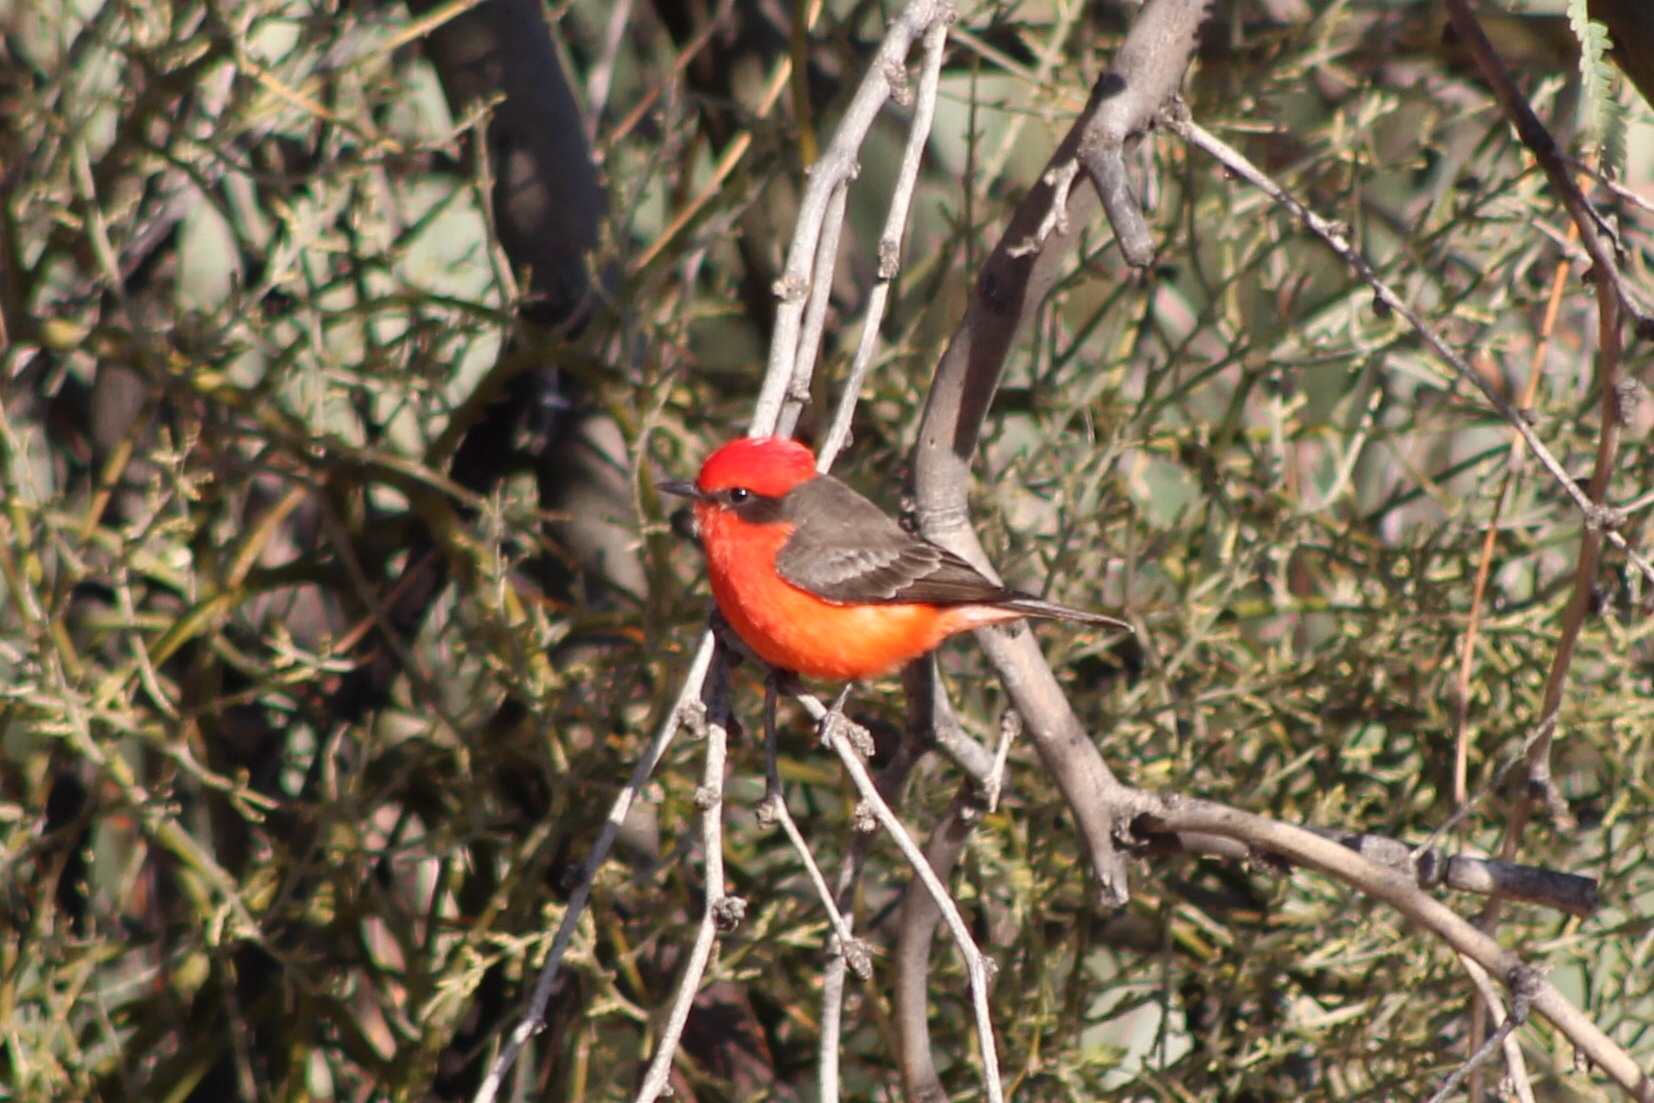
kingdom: Animalia
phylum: Chordata
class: Aves
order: Passeriformes
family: Tyrannidae
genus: Pyrocephalus
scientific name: Pyrocephalus rubinus
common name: Vermilion flycatcher
